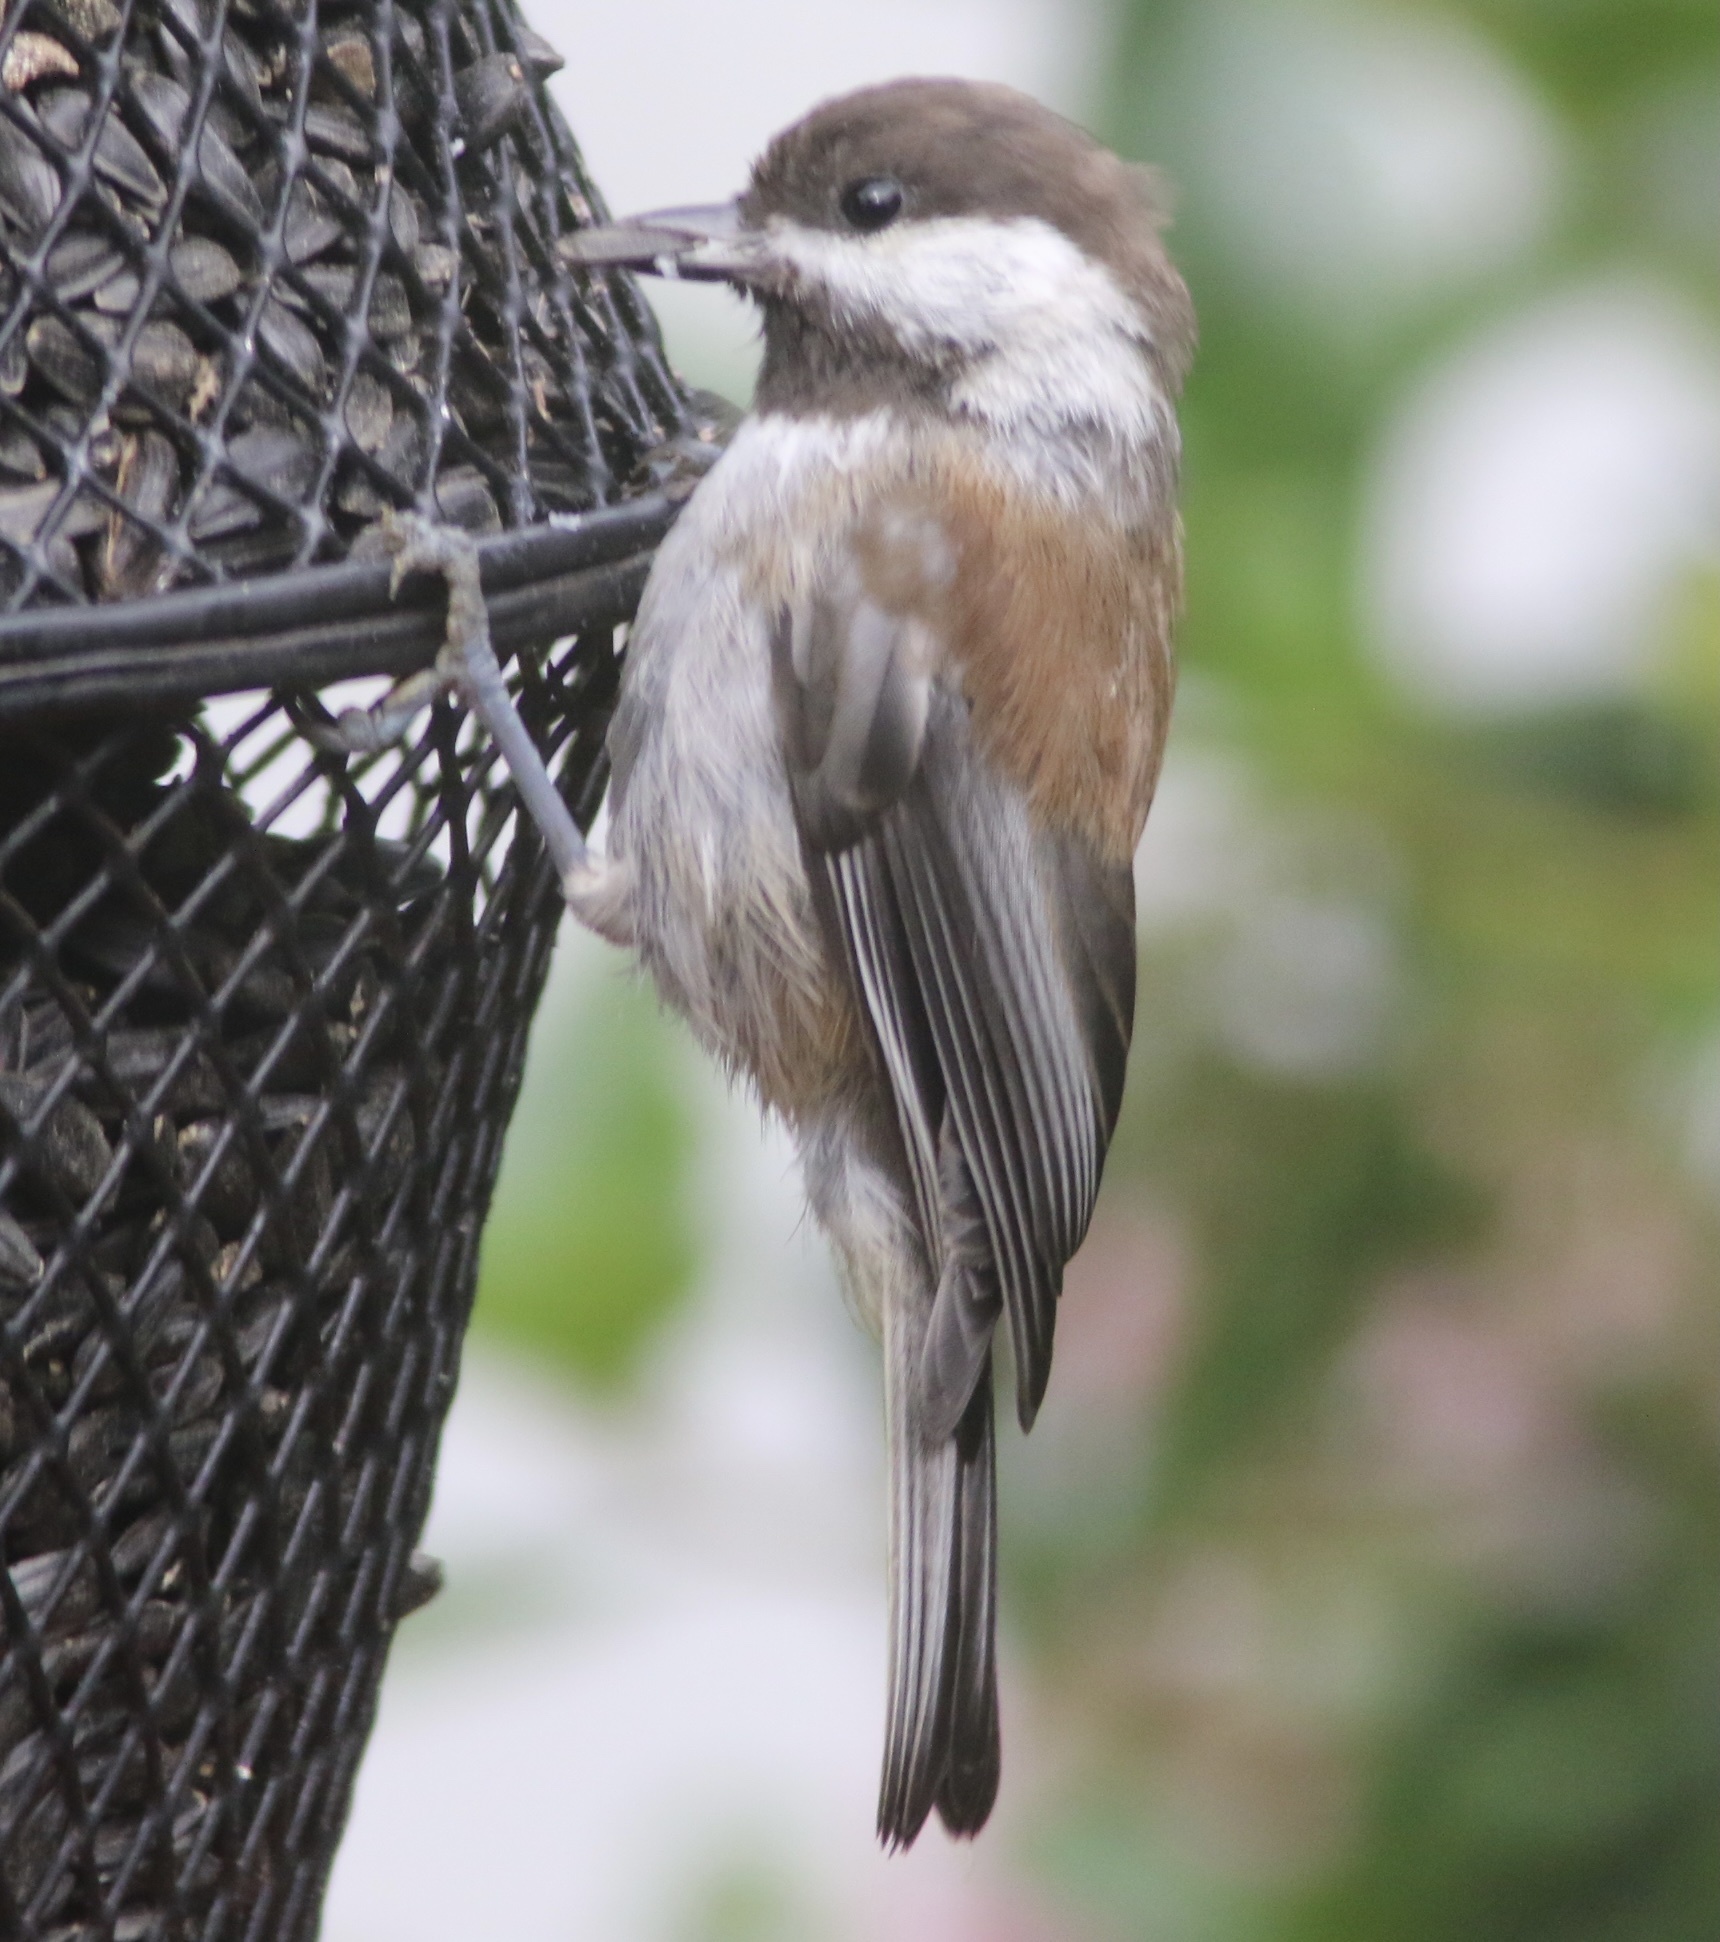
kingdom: Animalia
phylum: Chordata
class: Aves
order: Passeriformes
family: Paridae
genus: Poecile
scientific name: Poecile rufescens
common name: Chestnut-backed chickadee
